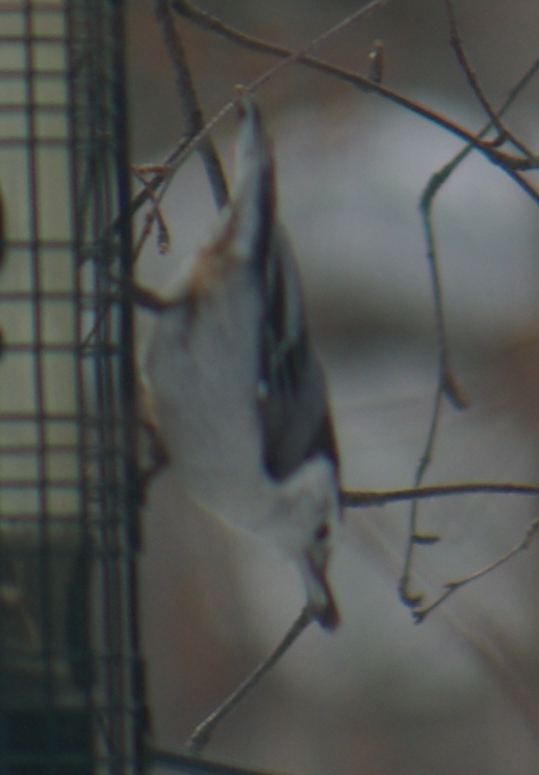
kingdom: Animalia
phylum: Chordata
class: Aves
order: Passeriformes
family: Sittidae
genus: Sitta
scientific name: Sitta carolinensis
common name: White-breasted nuthatch
